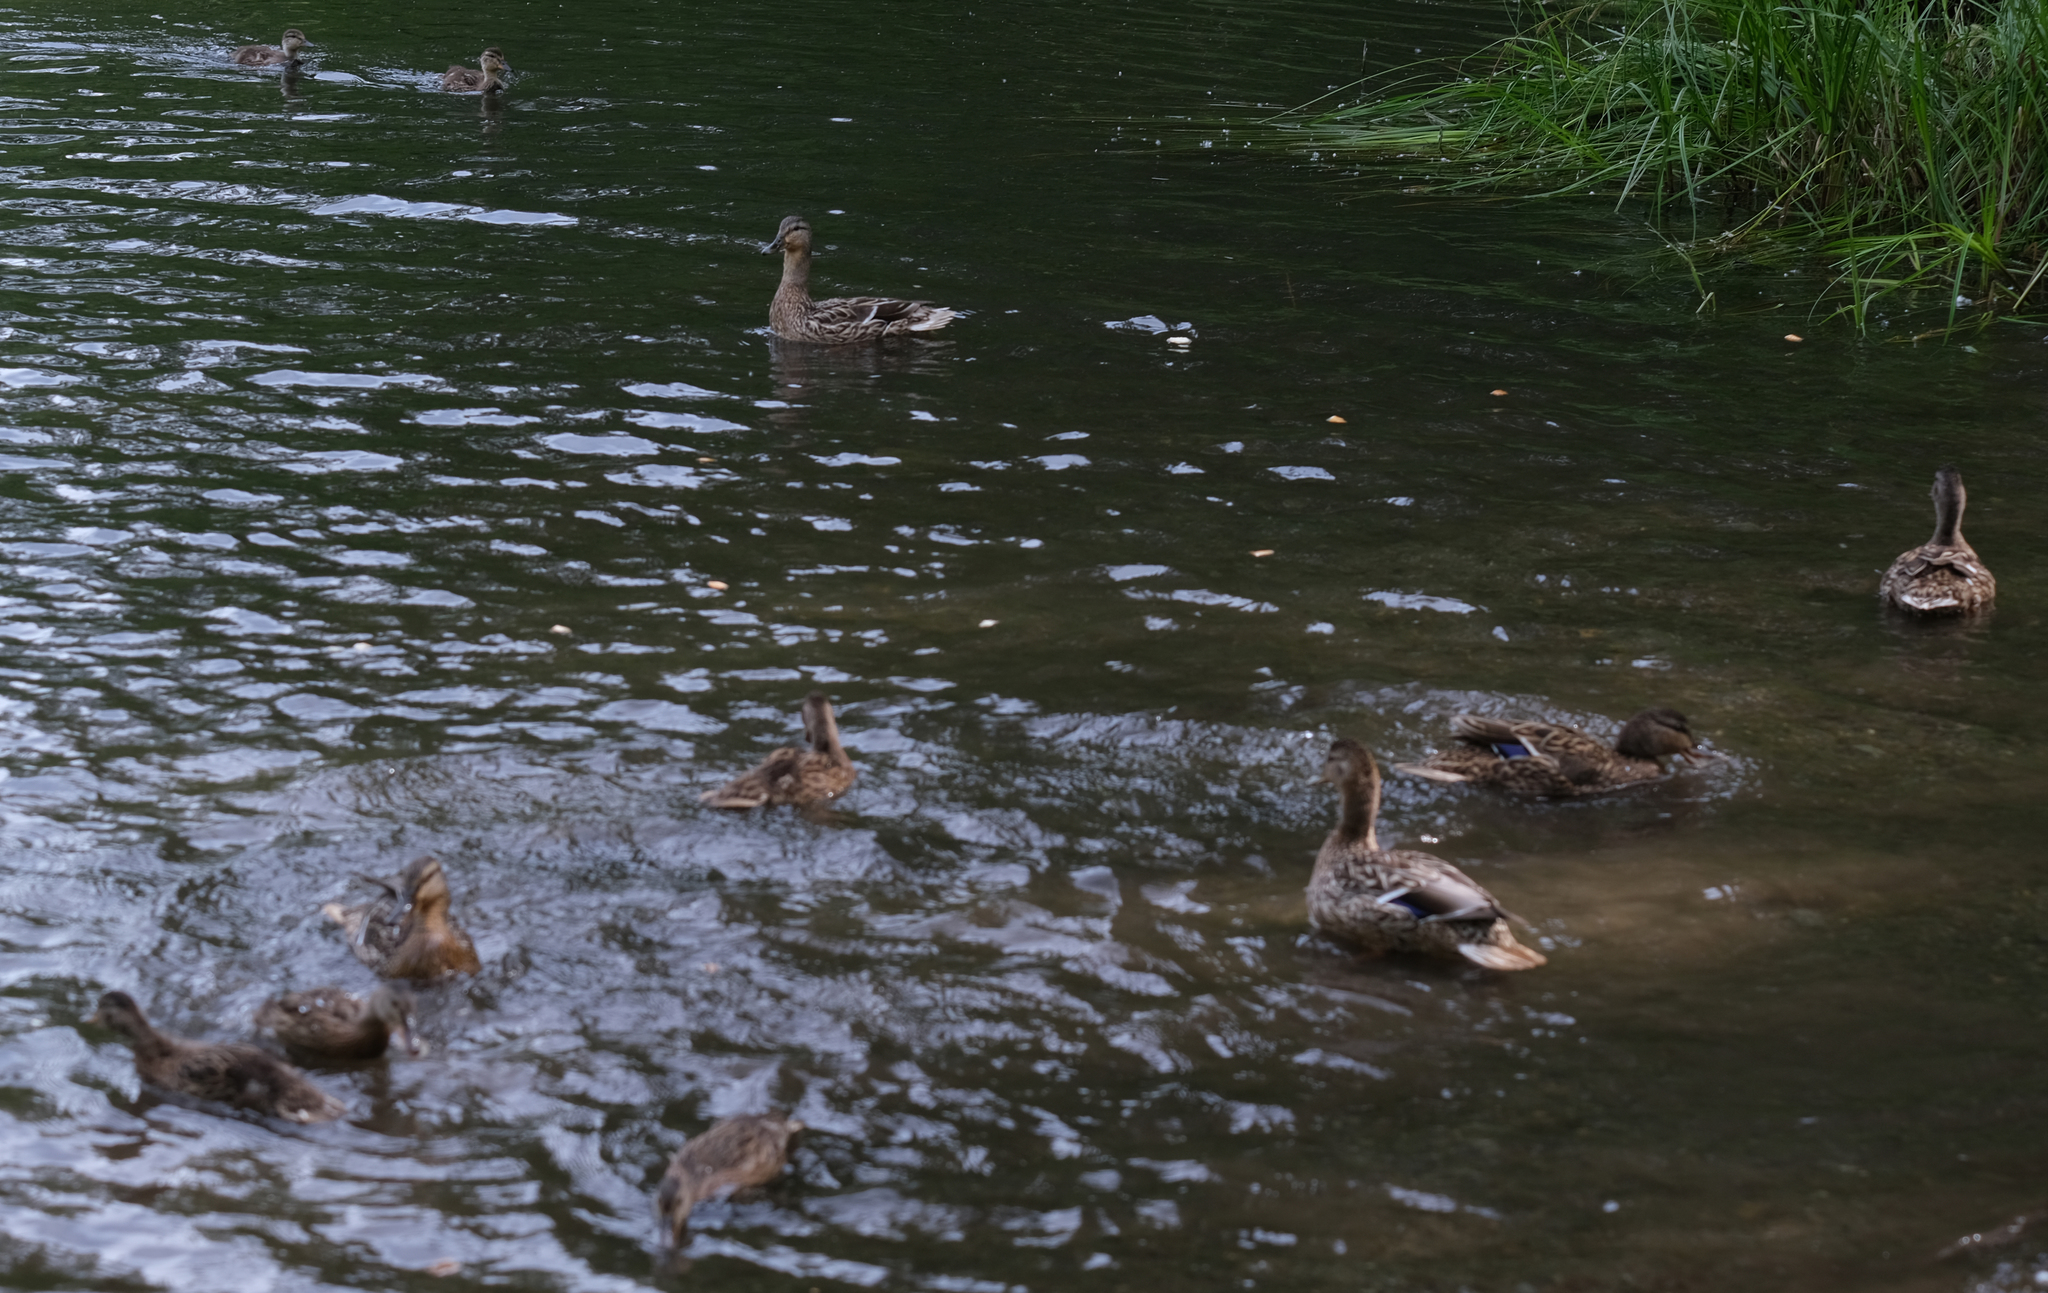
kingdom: Animalia
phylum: Chordata
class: Aves
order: Anseriformes
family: Anatidae
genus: Anas
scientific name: Anas platyrhynchos
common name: Mallard
